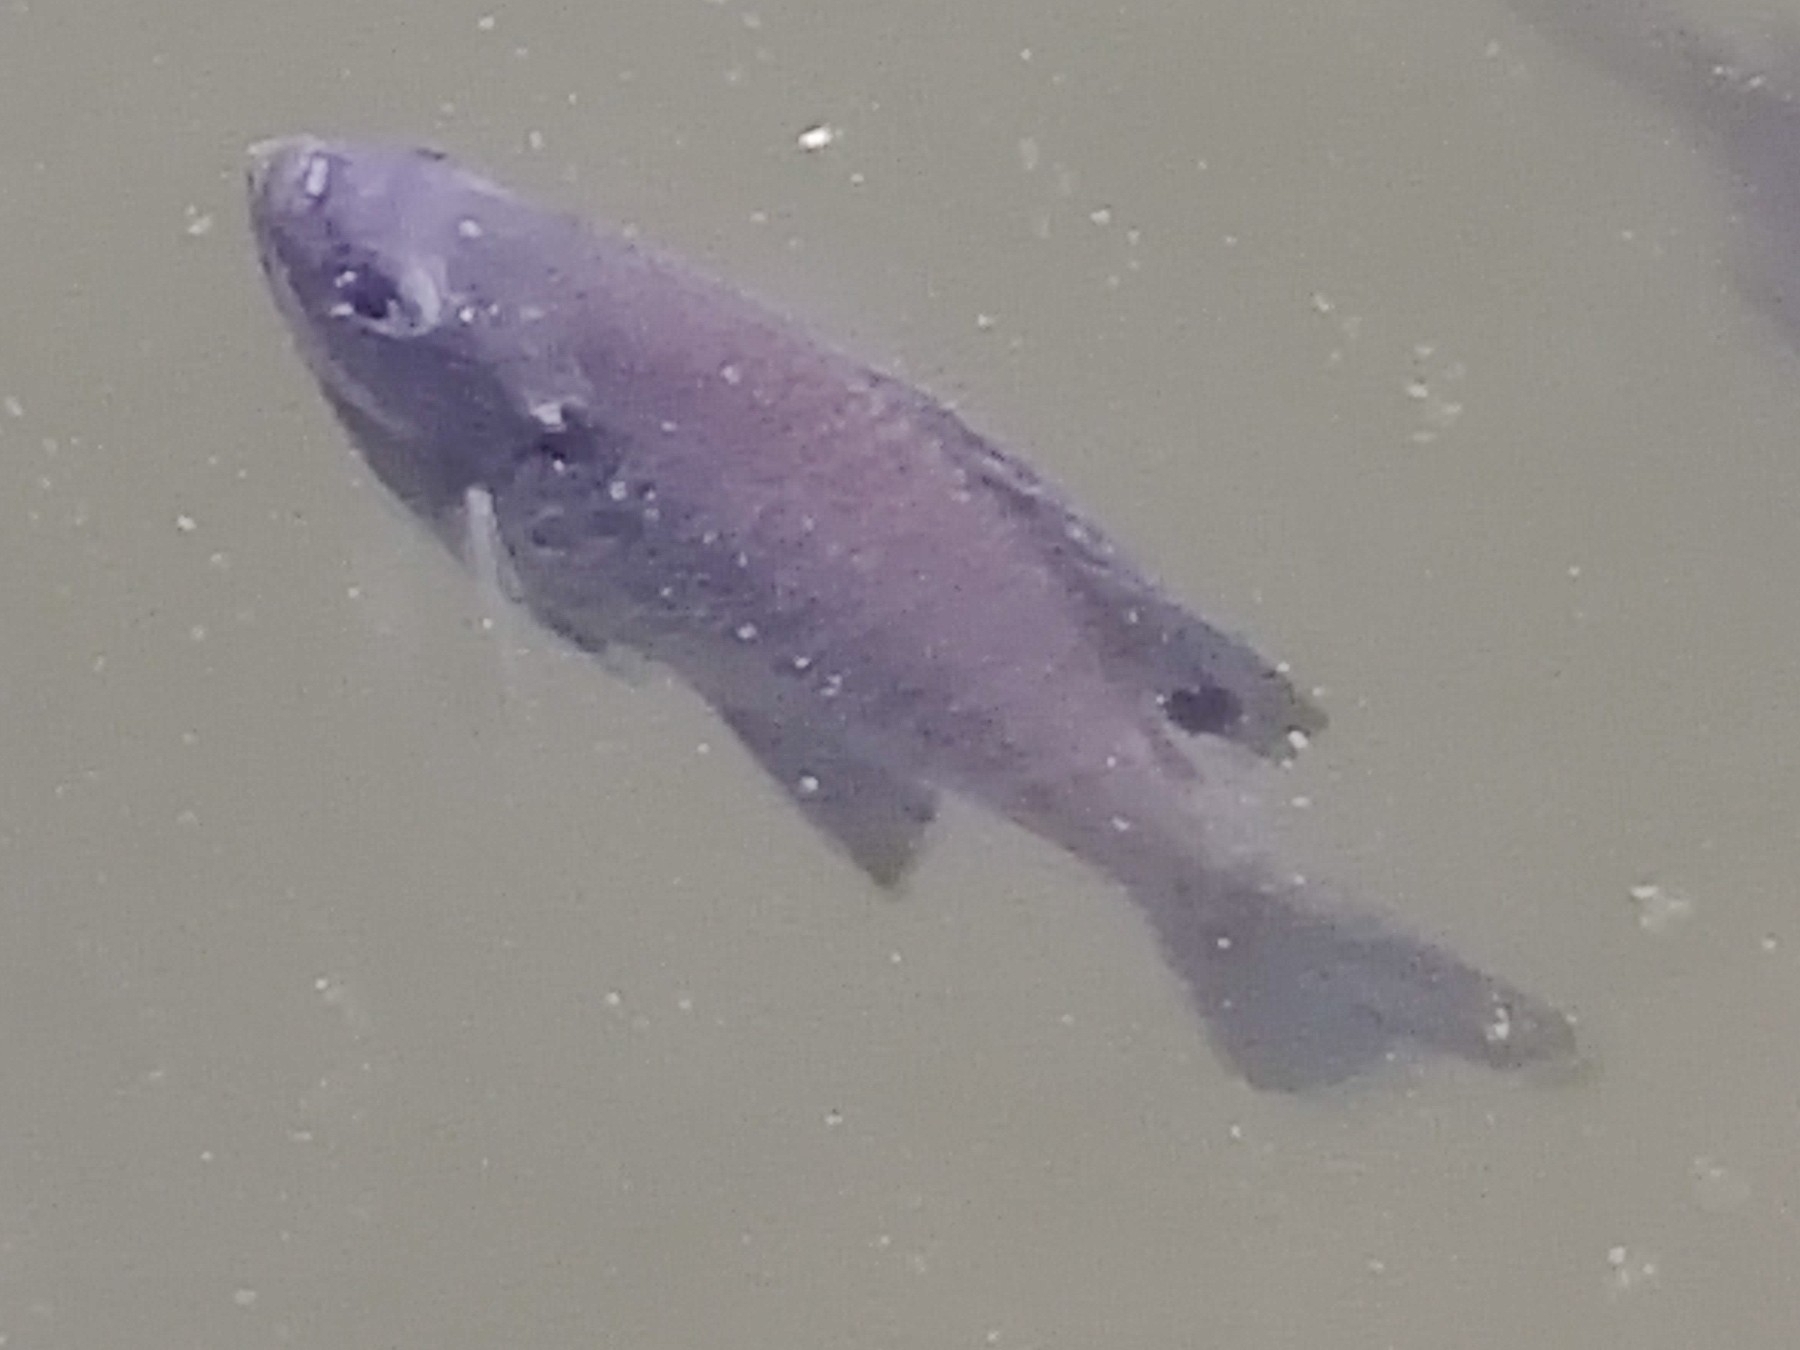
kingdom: Animalia
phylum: Chordata
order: Perciformes
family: Centrarchidae
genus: Lepomis
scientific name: Lepomis macrochirus
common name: Bluegill
